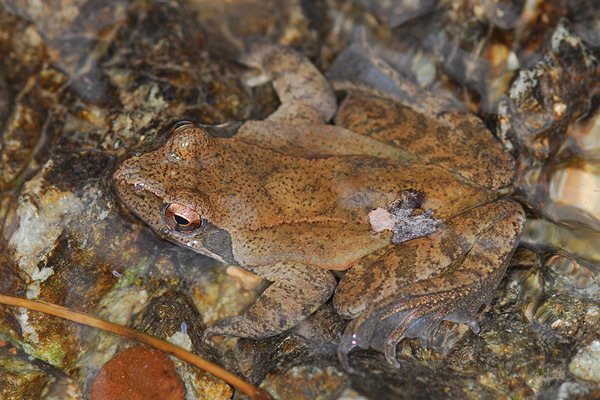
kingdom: Animalia
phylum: Chordata
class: Amphibia
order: Anura
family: Ranidae
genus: Rana
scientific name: Rana huanrenensis
